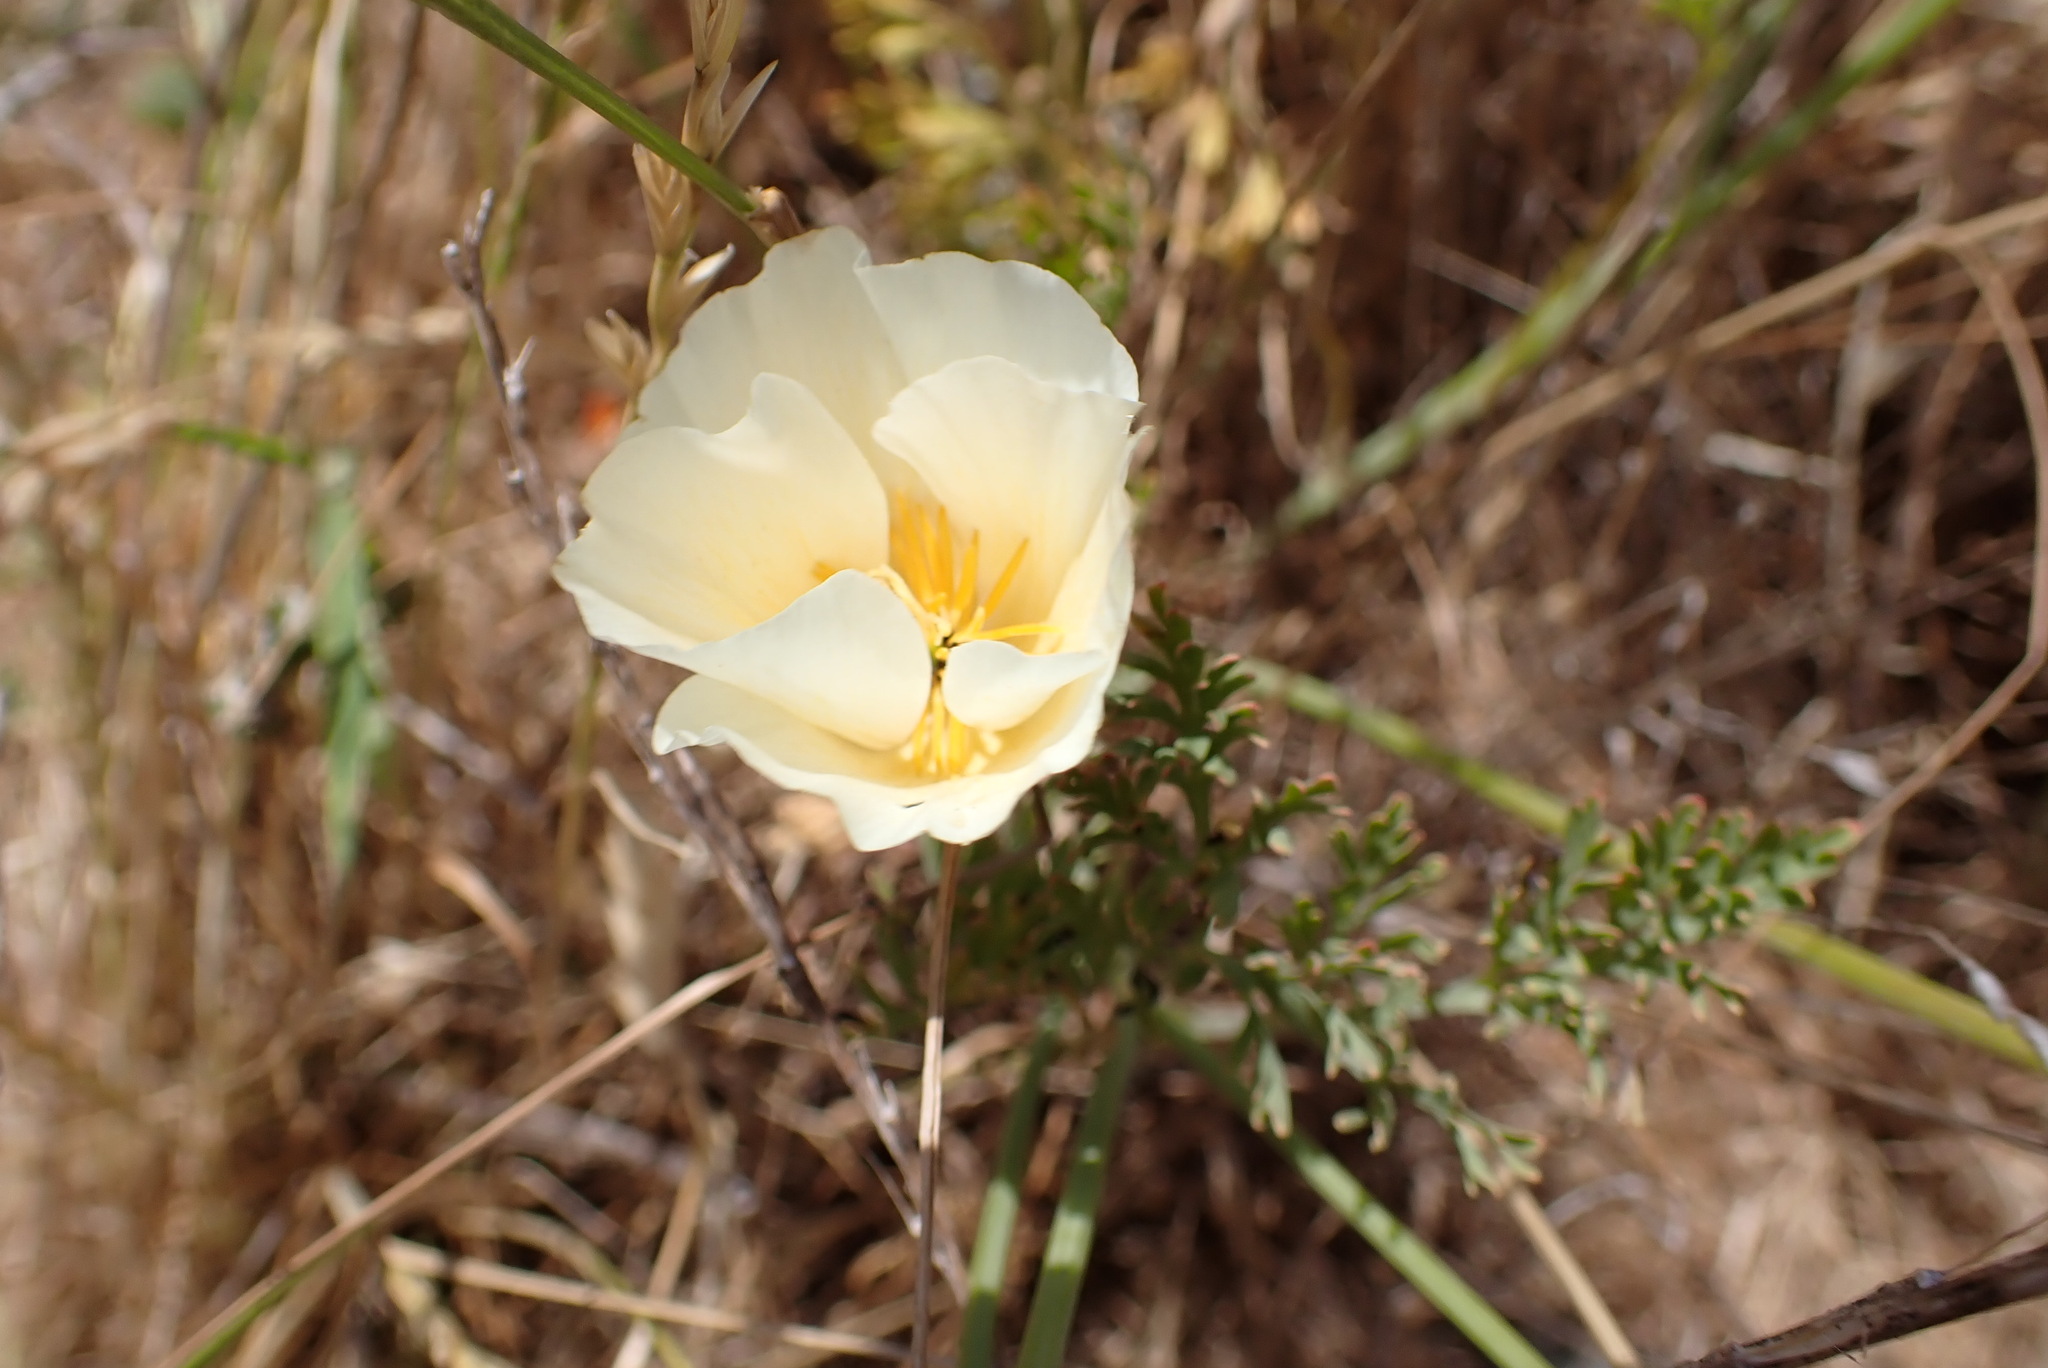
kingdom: Plantae
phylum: Tracheophyta
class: Magnoliopsida
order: Ranunculales
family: Papaveraceae
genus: Eschscholzia
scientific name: Eschscholzia californica
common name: California poppy
